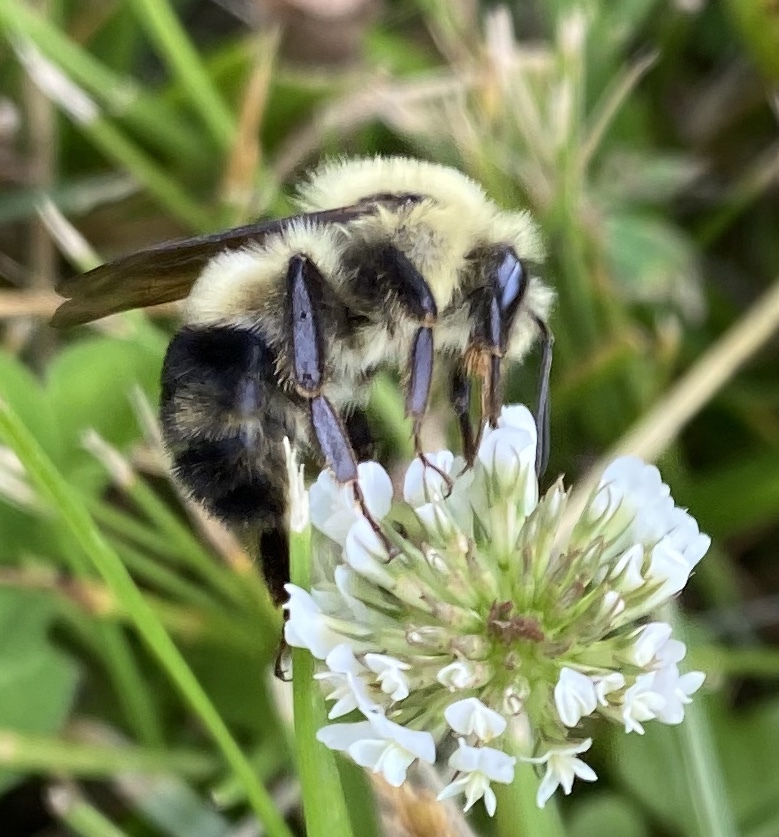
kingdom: Animalia
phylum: Arthropoda
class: Insecta
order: Hymenoptera
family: Apidae
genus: Bombus
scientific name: Bombus bimaculatus
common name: Two-spotted bumble bee
